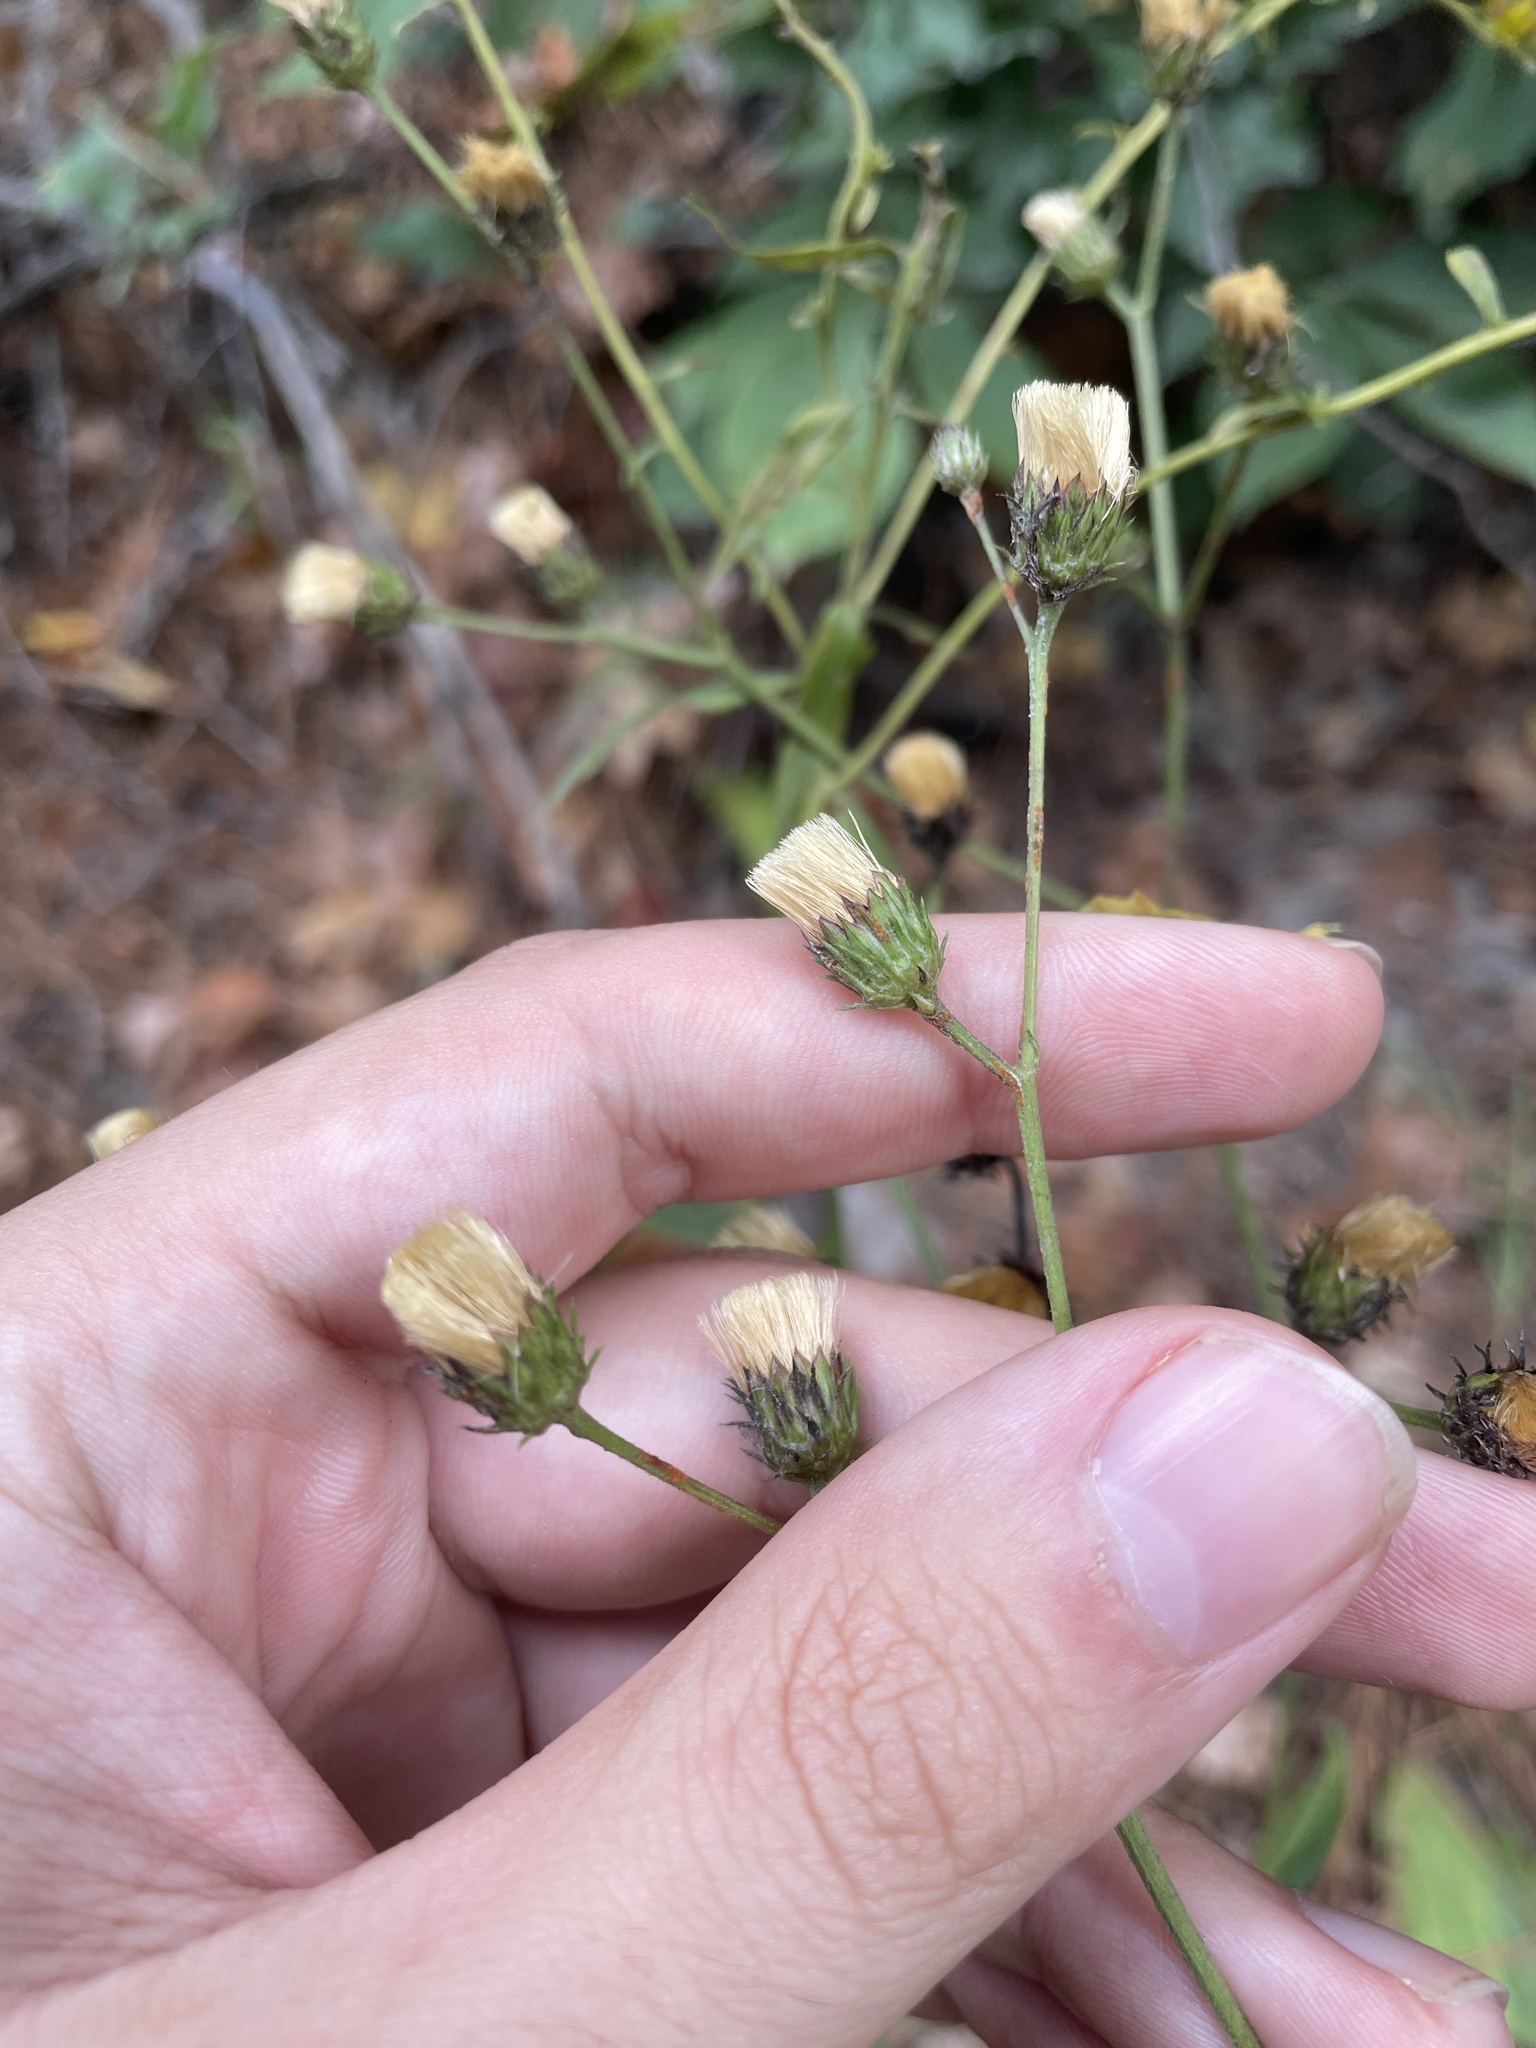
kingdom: Plantae
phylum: Tracheophyta
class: Magnoliopsida
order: Asterales
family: Asteraceae
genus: Vernonia
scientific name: Vernonia acaulis
